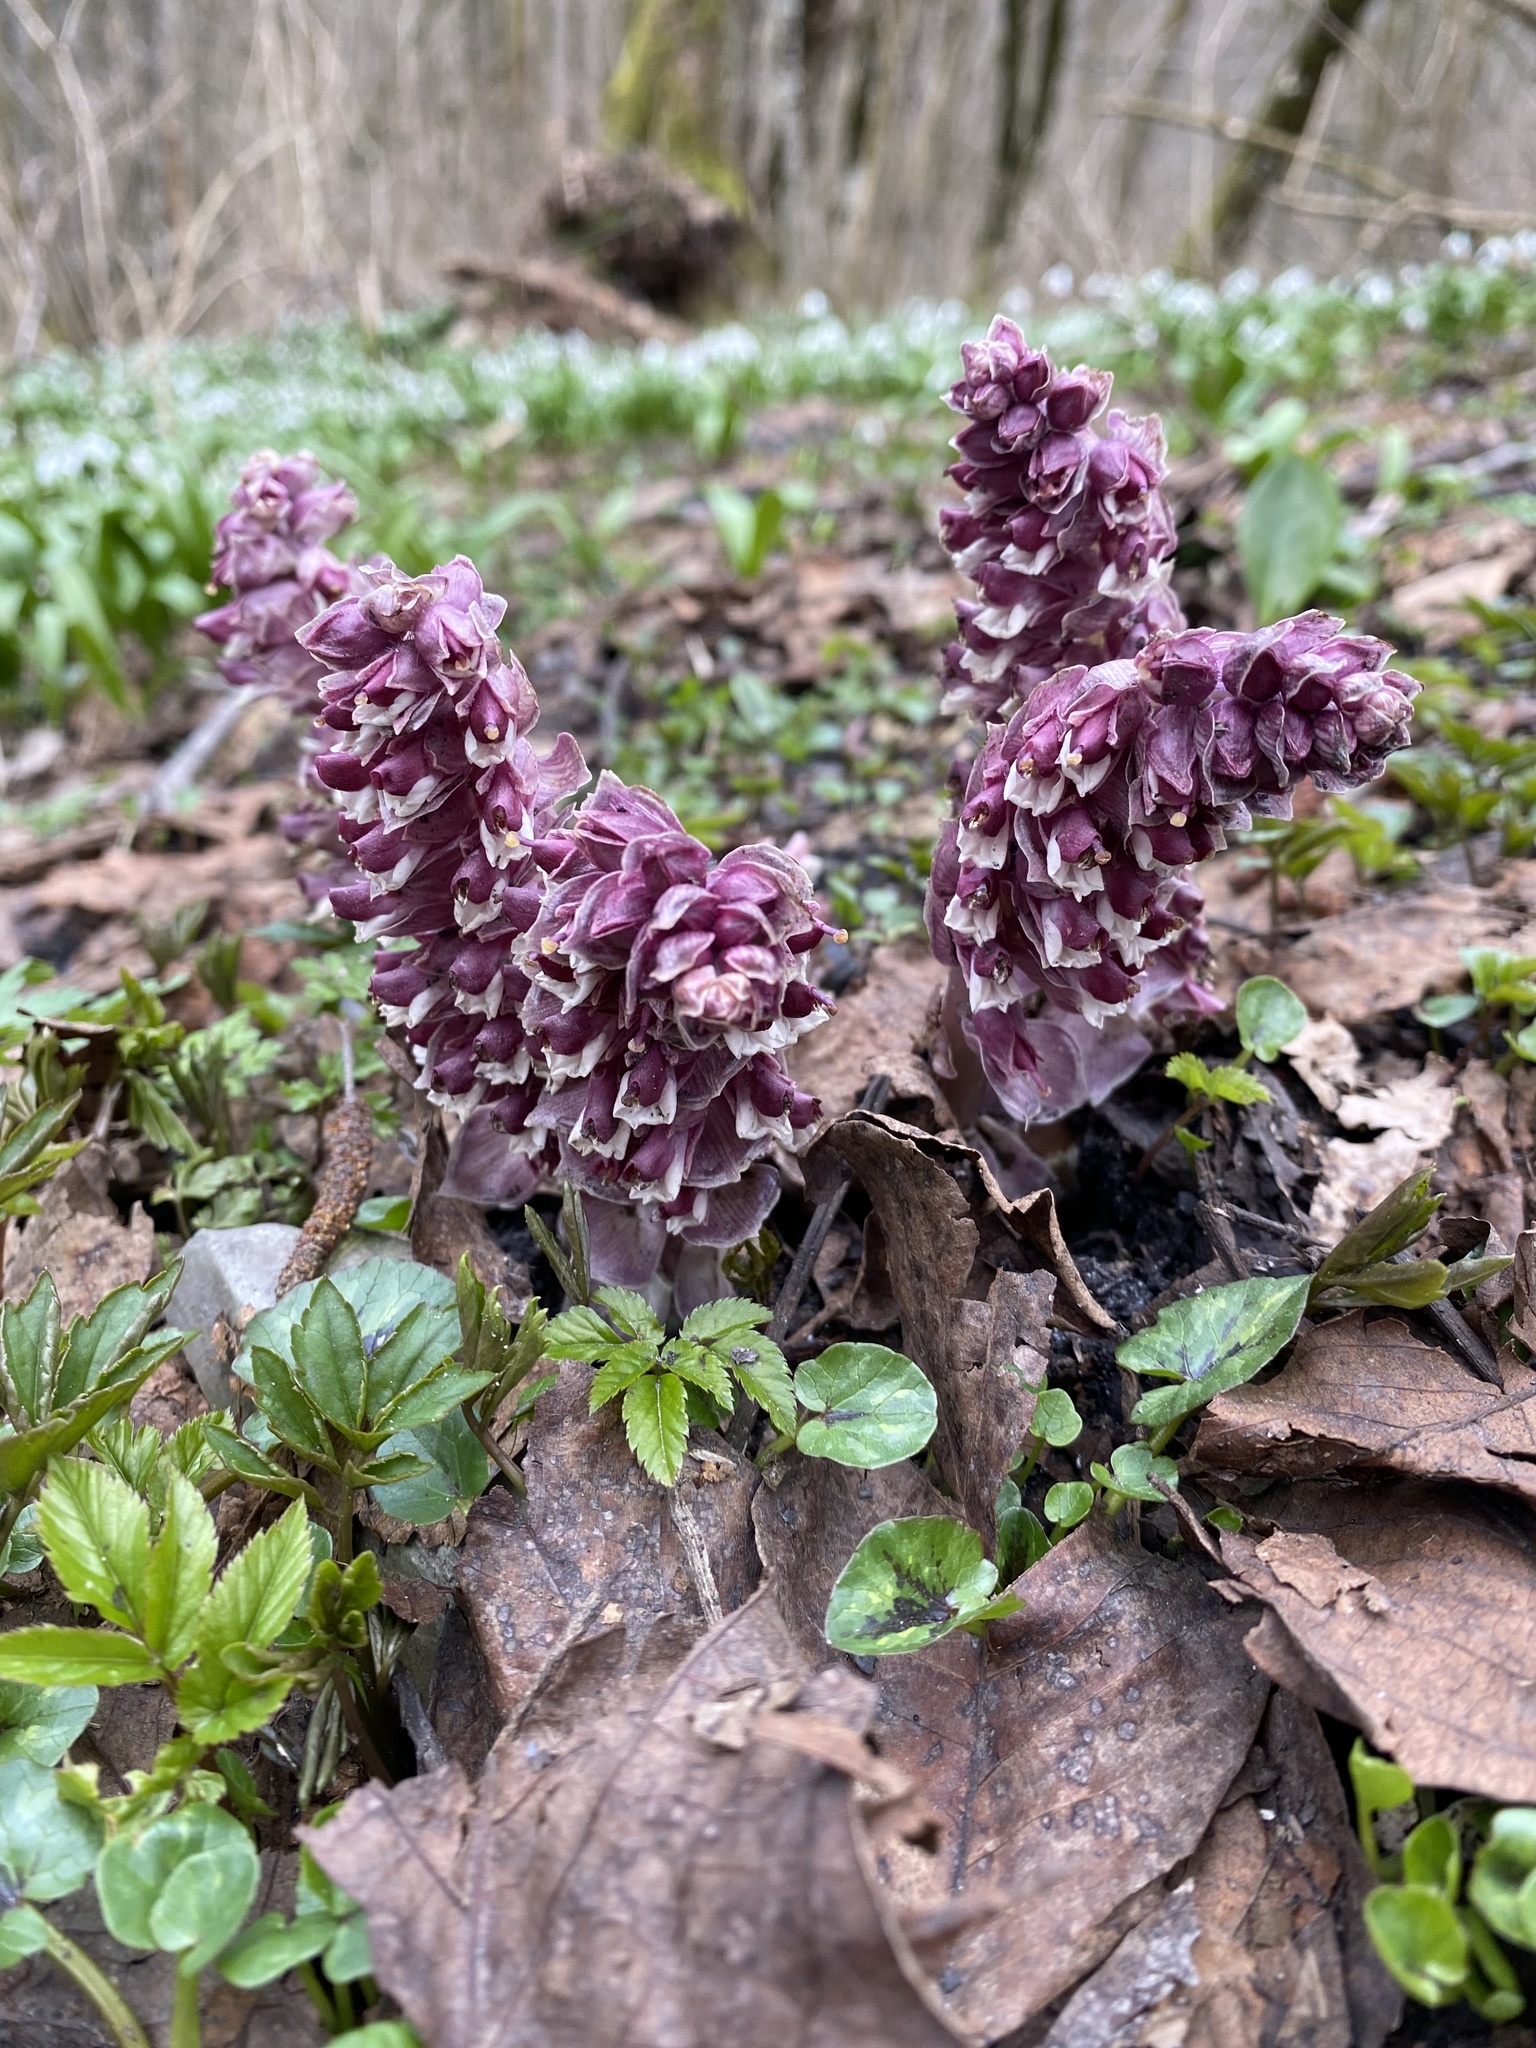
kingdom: Plantae
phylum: Tracheophyta
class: Magnoliopsida
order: Lamiales
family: Orobanchaceae
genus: Lathraea
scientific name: Lathraea squamaria
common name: Toothwort
